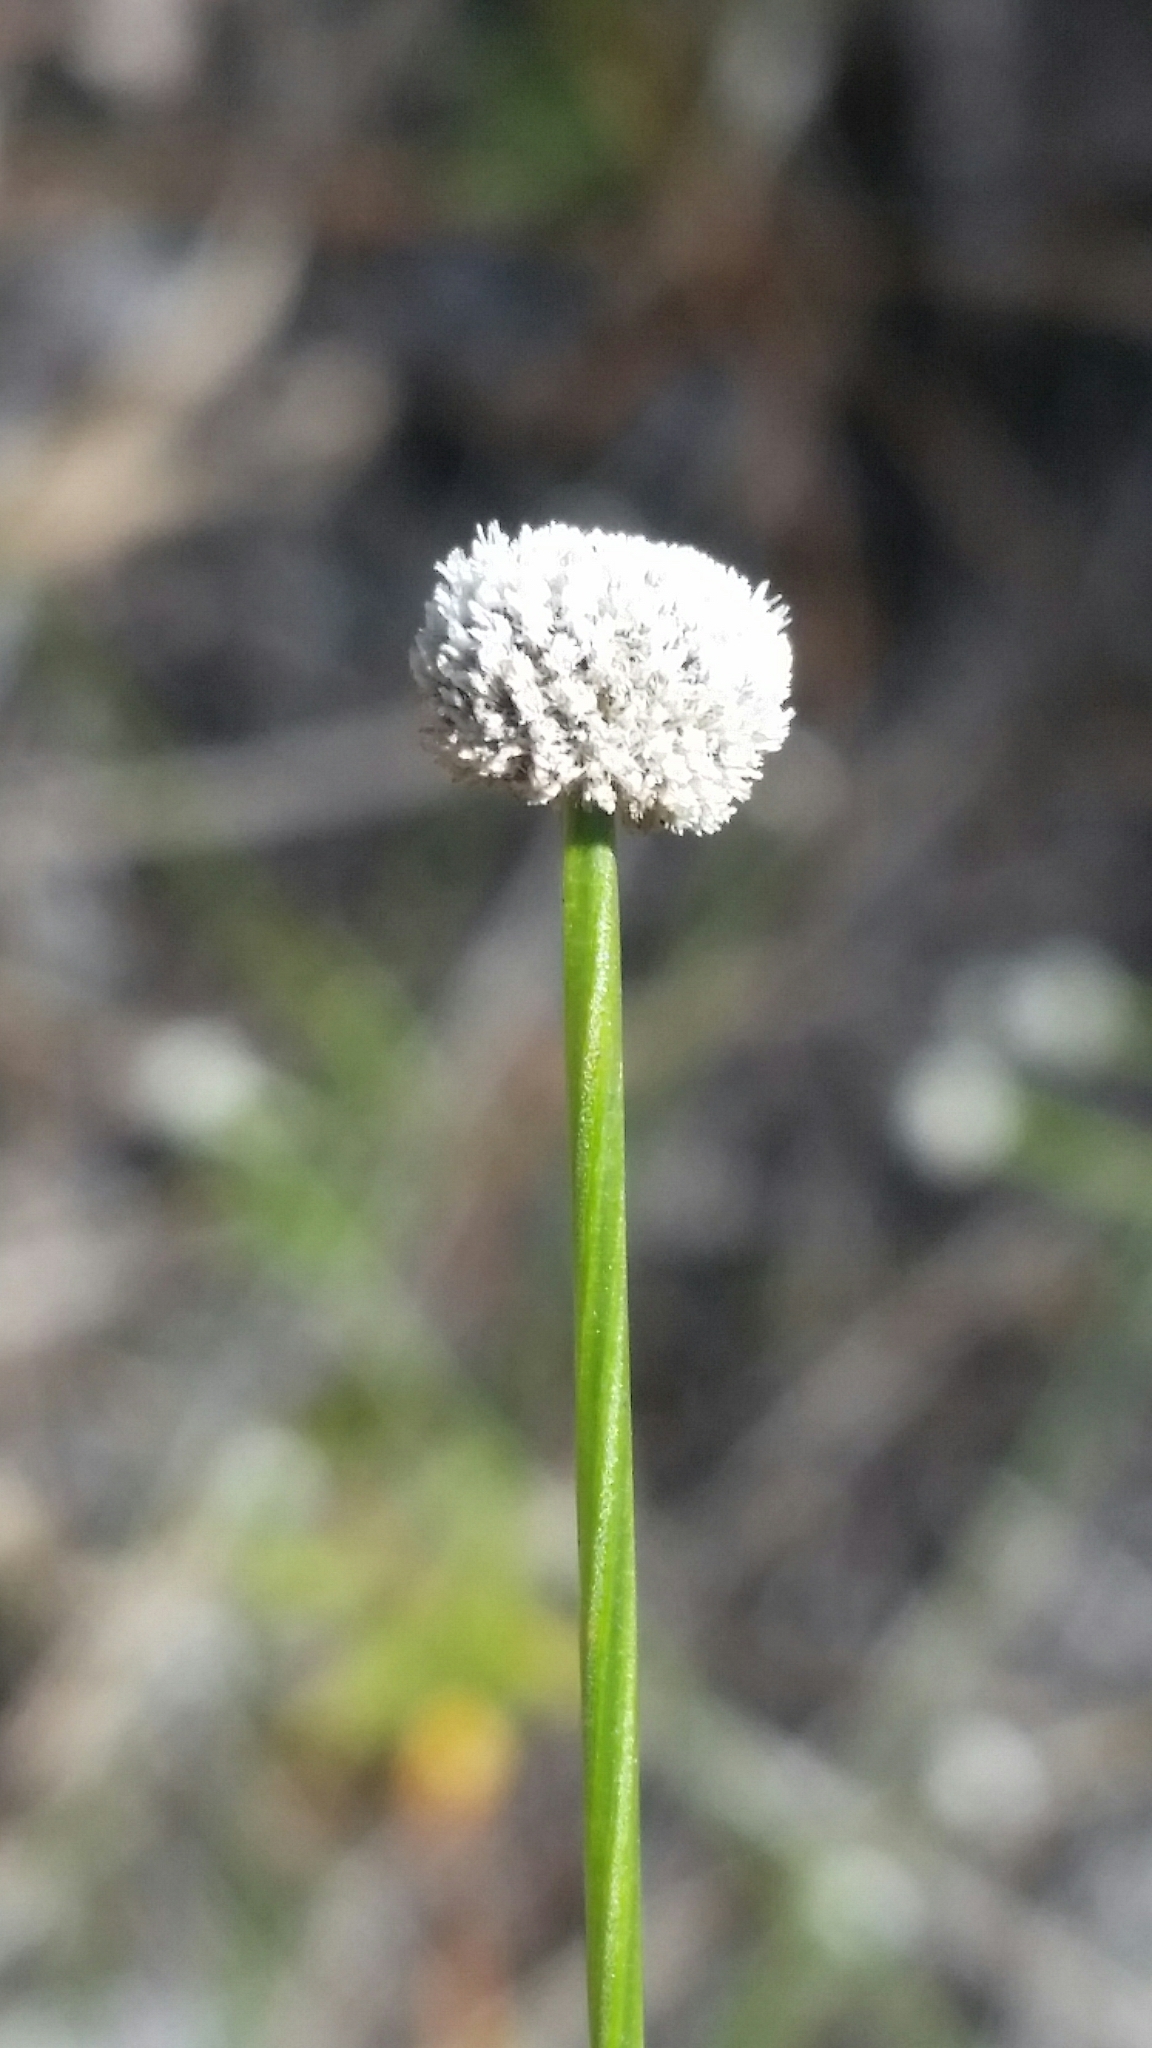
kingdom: Plantae
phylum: Tracheophyta
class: Liliopsida
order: Poales
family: Eriocaulaceae
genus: Paepalanthus
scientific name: Paepalanthus anceps
